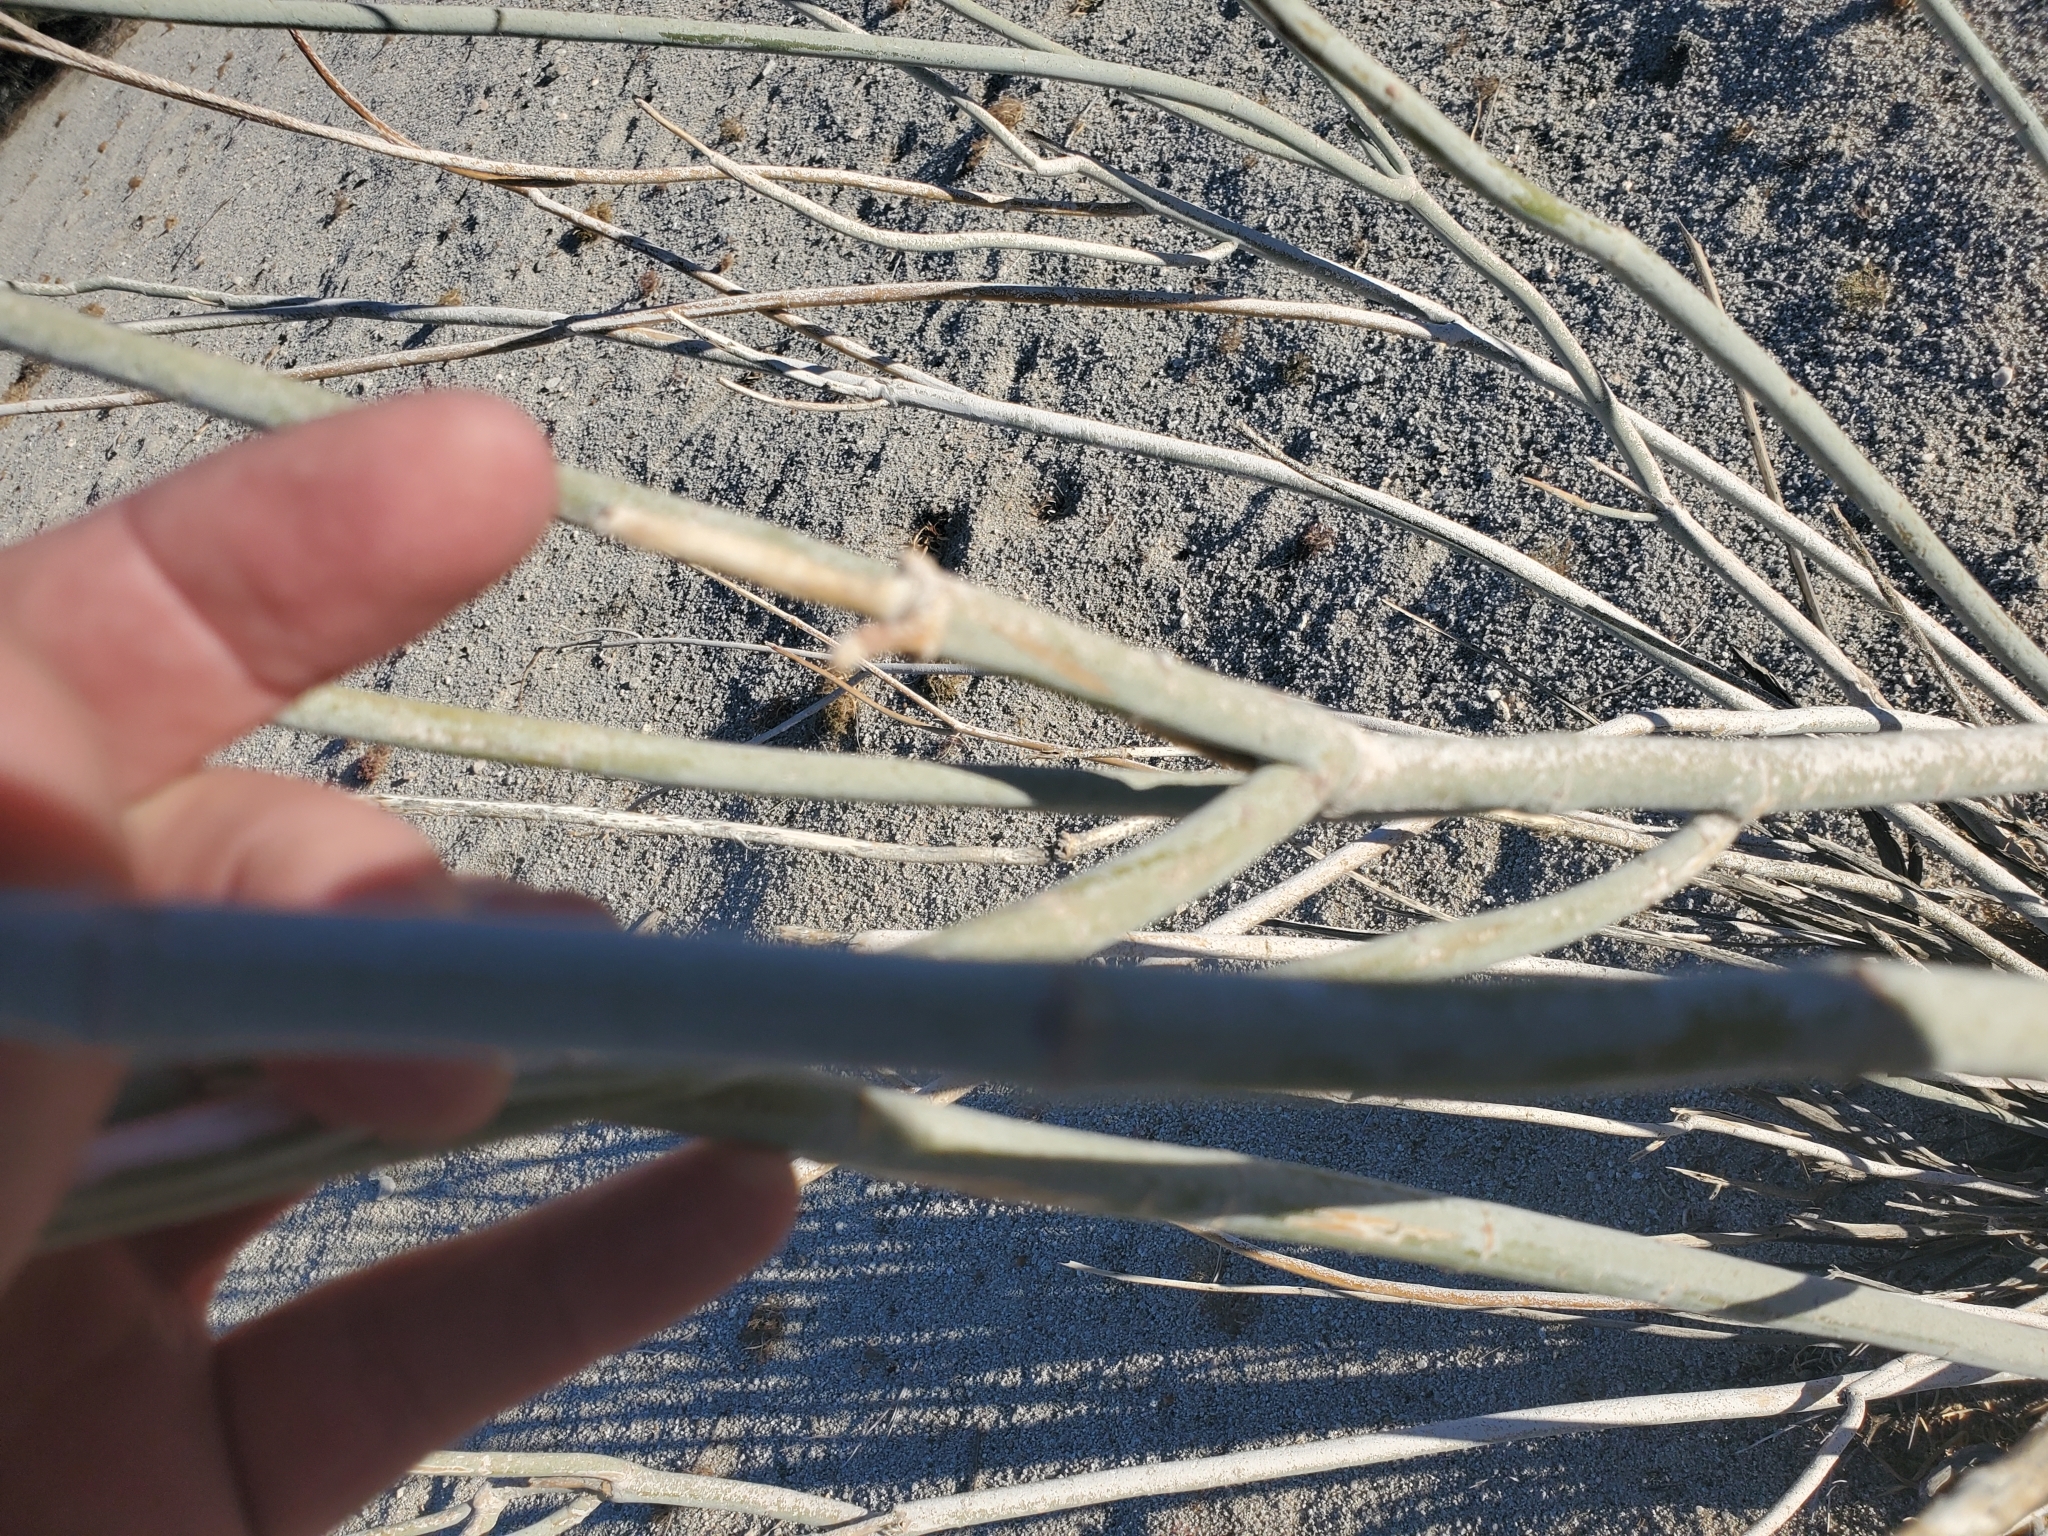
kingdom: Plantae
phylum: Tracheophyta
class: Magnoliopsida
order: Gentianales
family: Apocynaceae
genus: Asclepias
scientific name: Asclepias albicans
